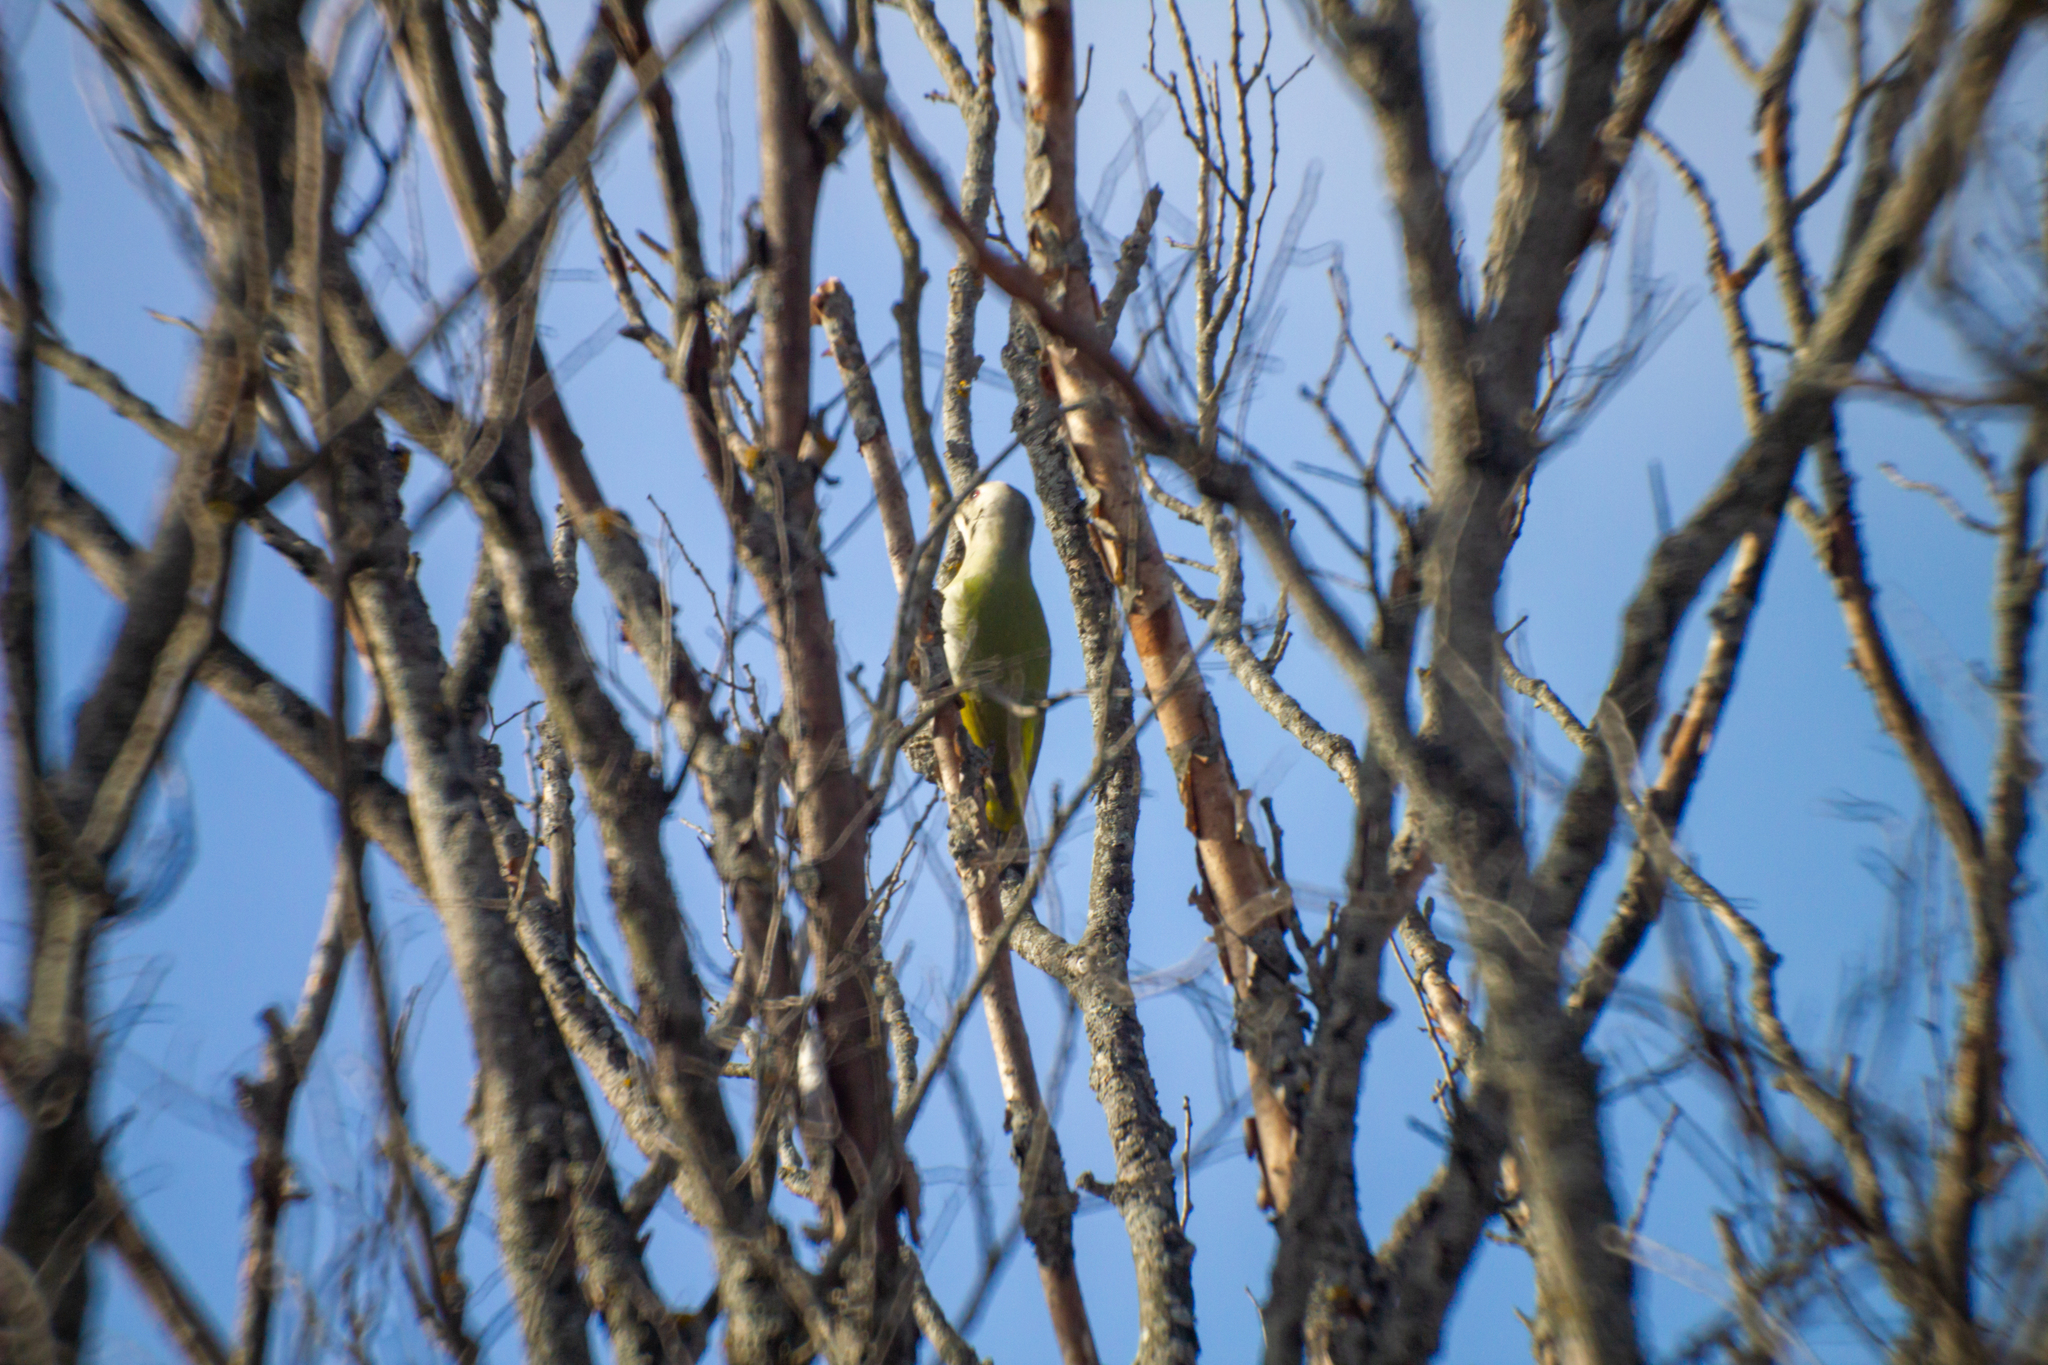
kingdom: Animalia
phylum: Chordata
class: Aves
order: Piciformes
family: Picidae
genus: Picus
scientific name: Picus canus
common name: Grey-headed woodpecker
